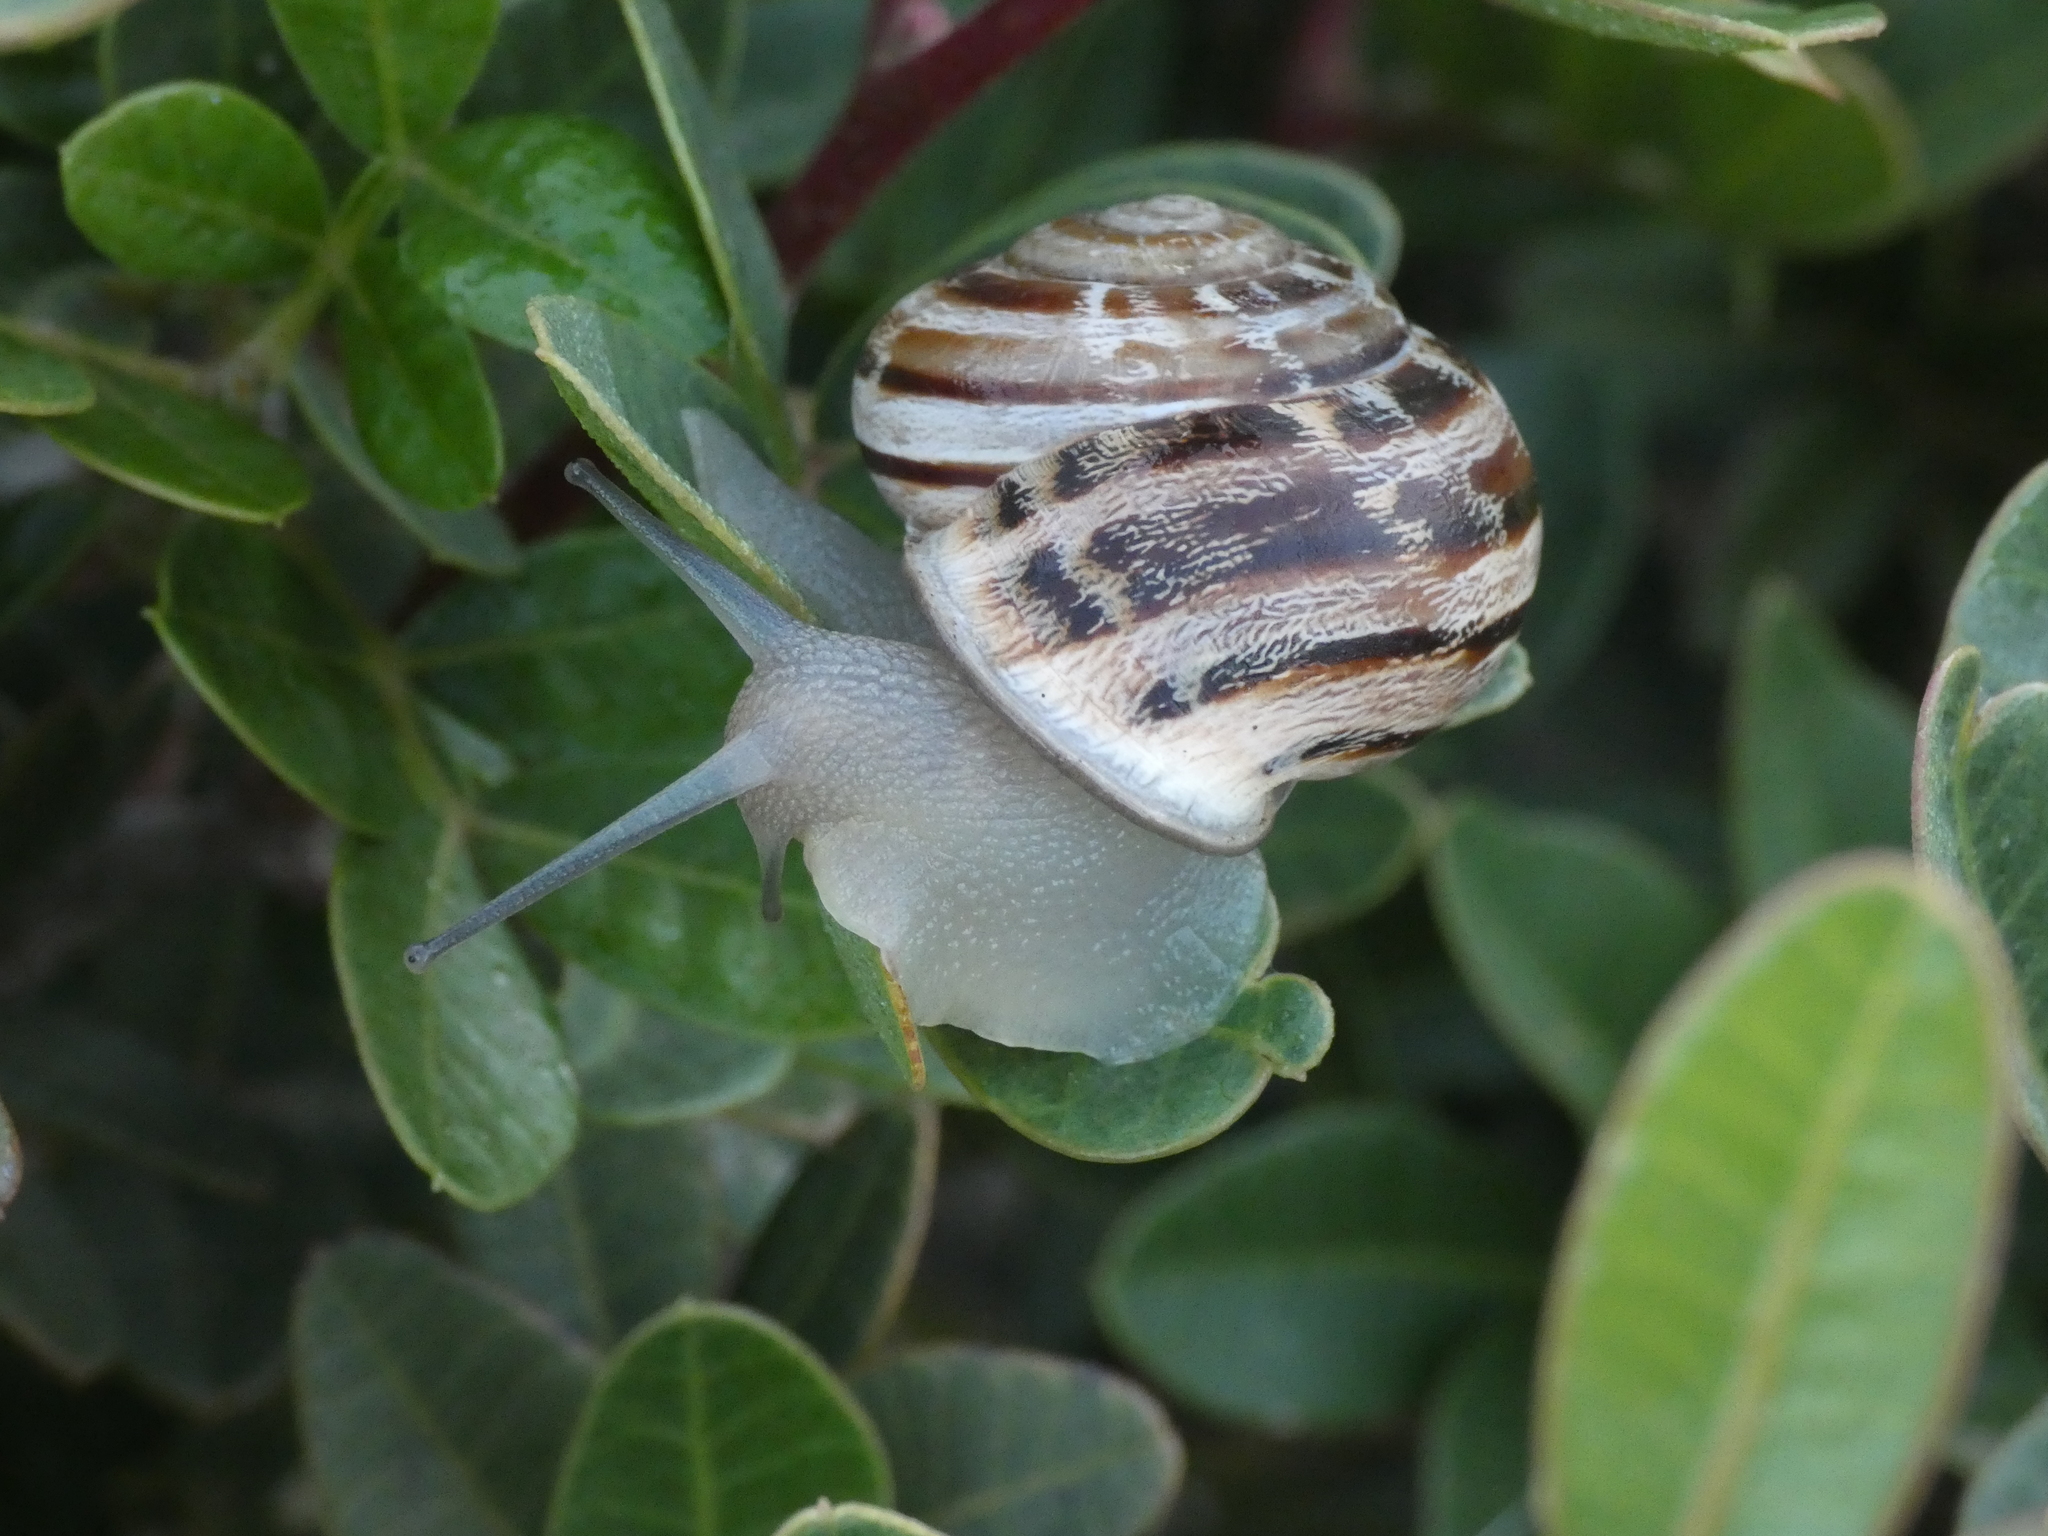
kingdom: Animalia
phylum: Mollusca
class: Gastropoda
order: Stylommatophora
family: Helicidae
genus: Eobania
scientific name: Eobania vermiculata
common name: Chocolateband snail
